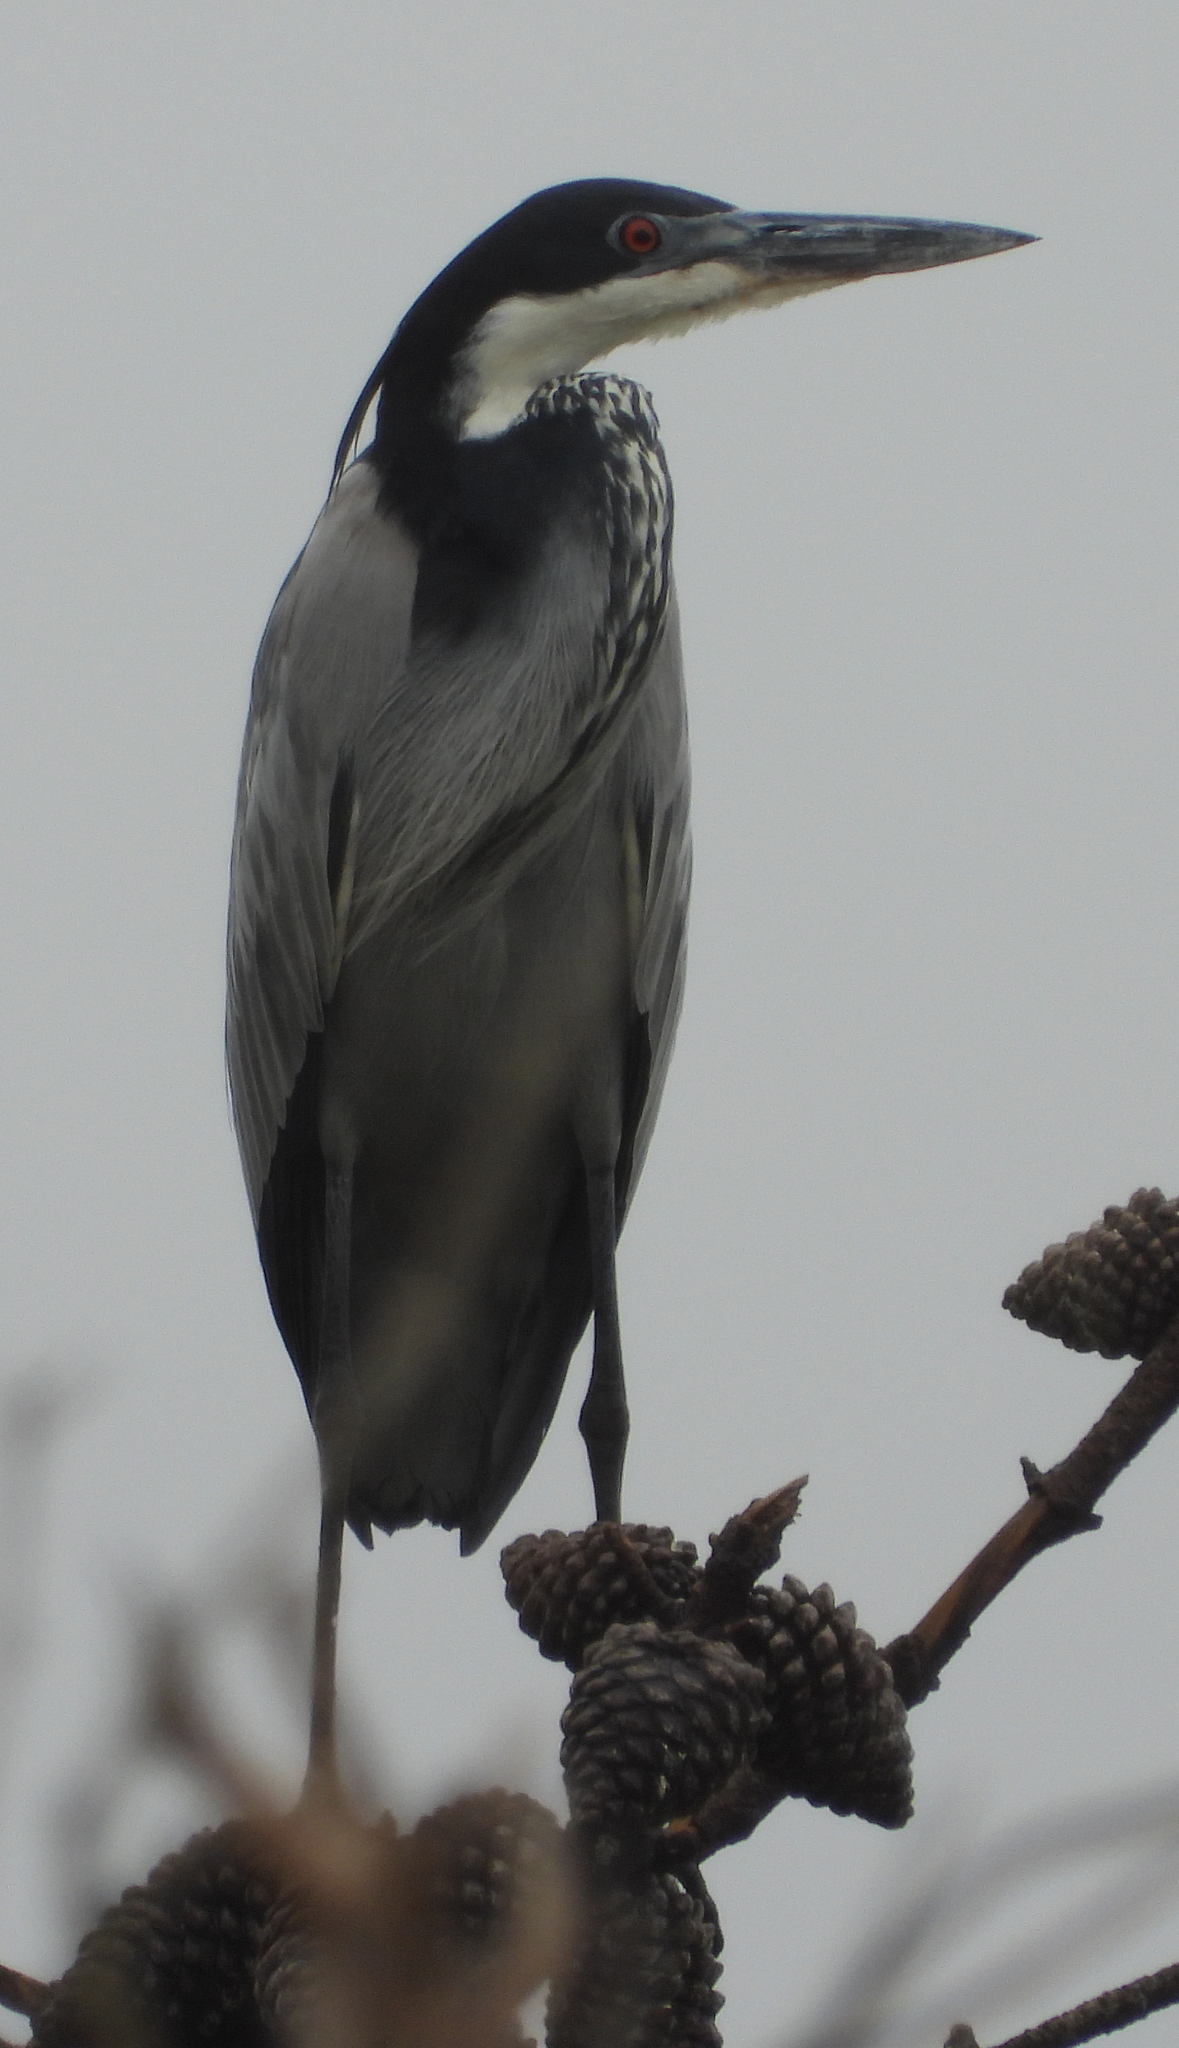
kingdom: Animalia
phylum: Chordata
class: Aves
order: Pelecaniformes
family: Ardeidae
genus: Ardea
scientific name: Ardea melanocephala
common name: Black-headed heron
